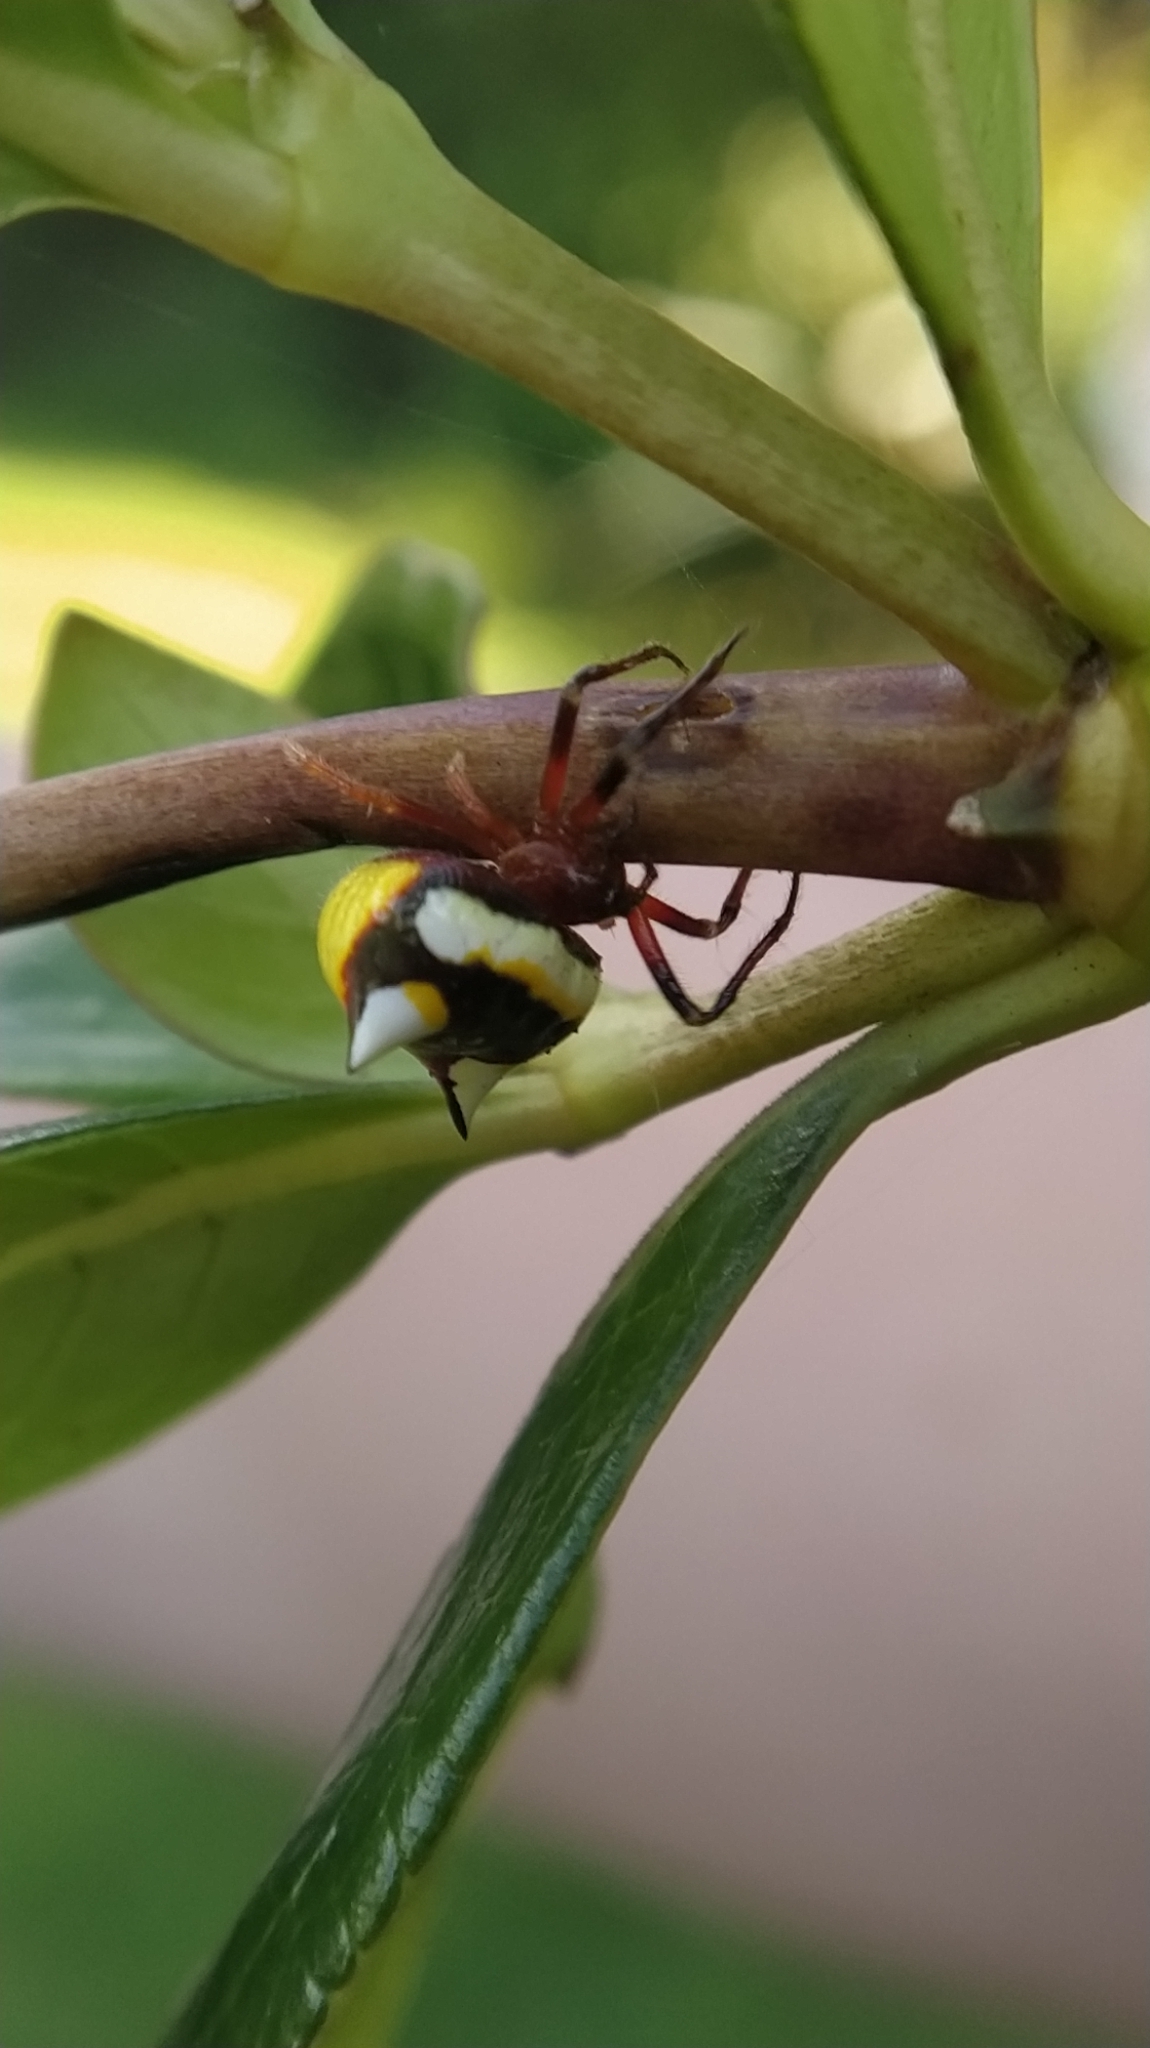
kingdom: Animalia
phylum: Arthropoda
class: Arachnida
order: Araneae
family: Araneidae
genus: Poecilopachys
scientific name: Poecilopachys australasia
